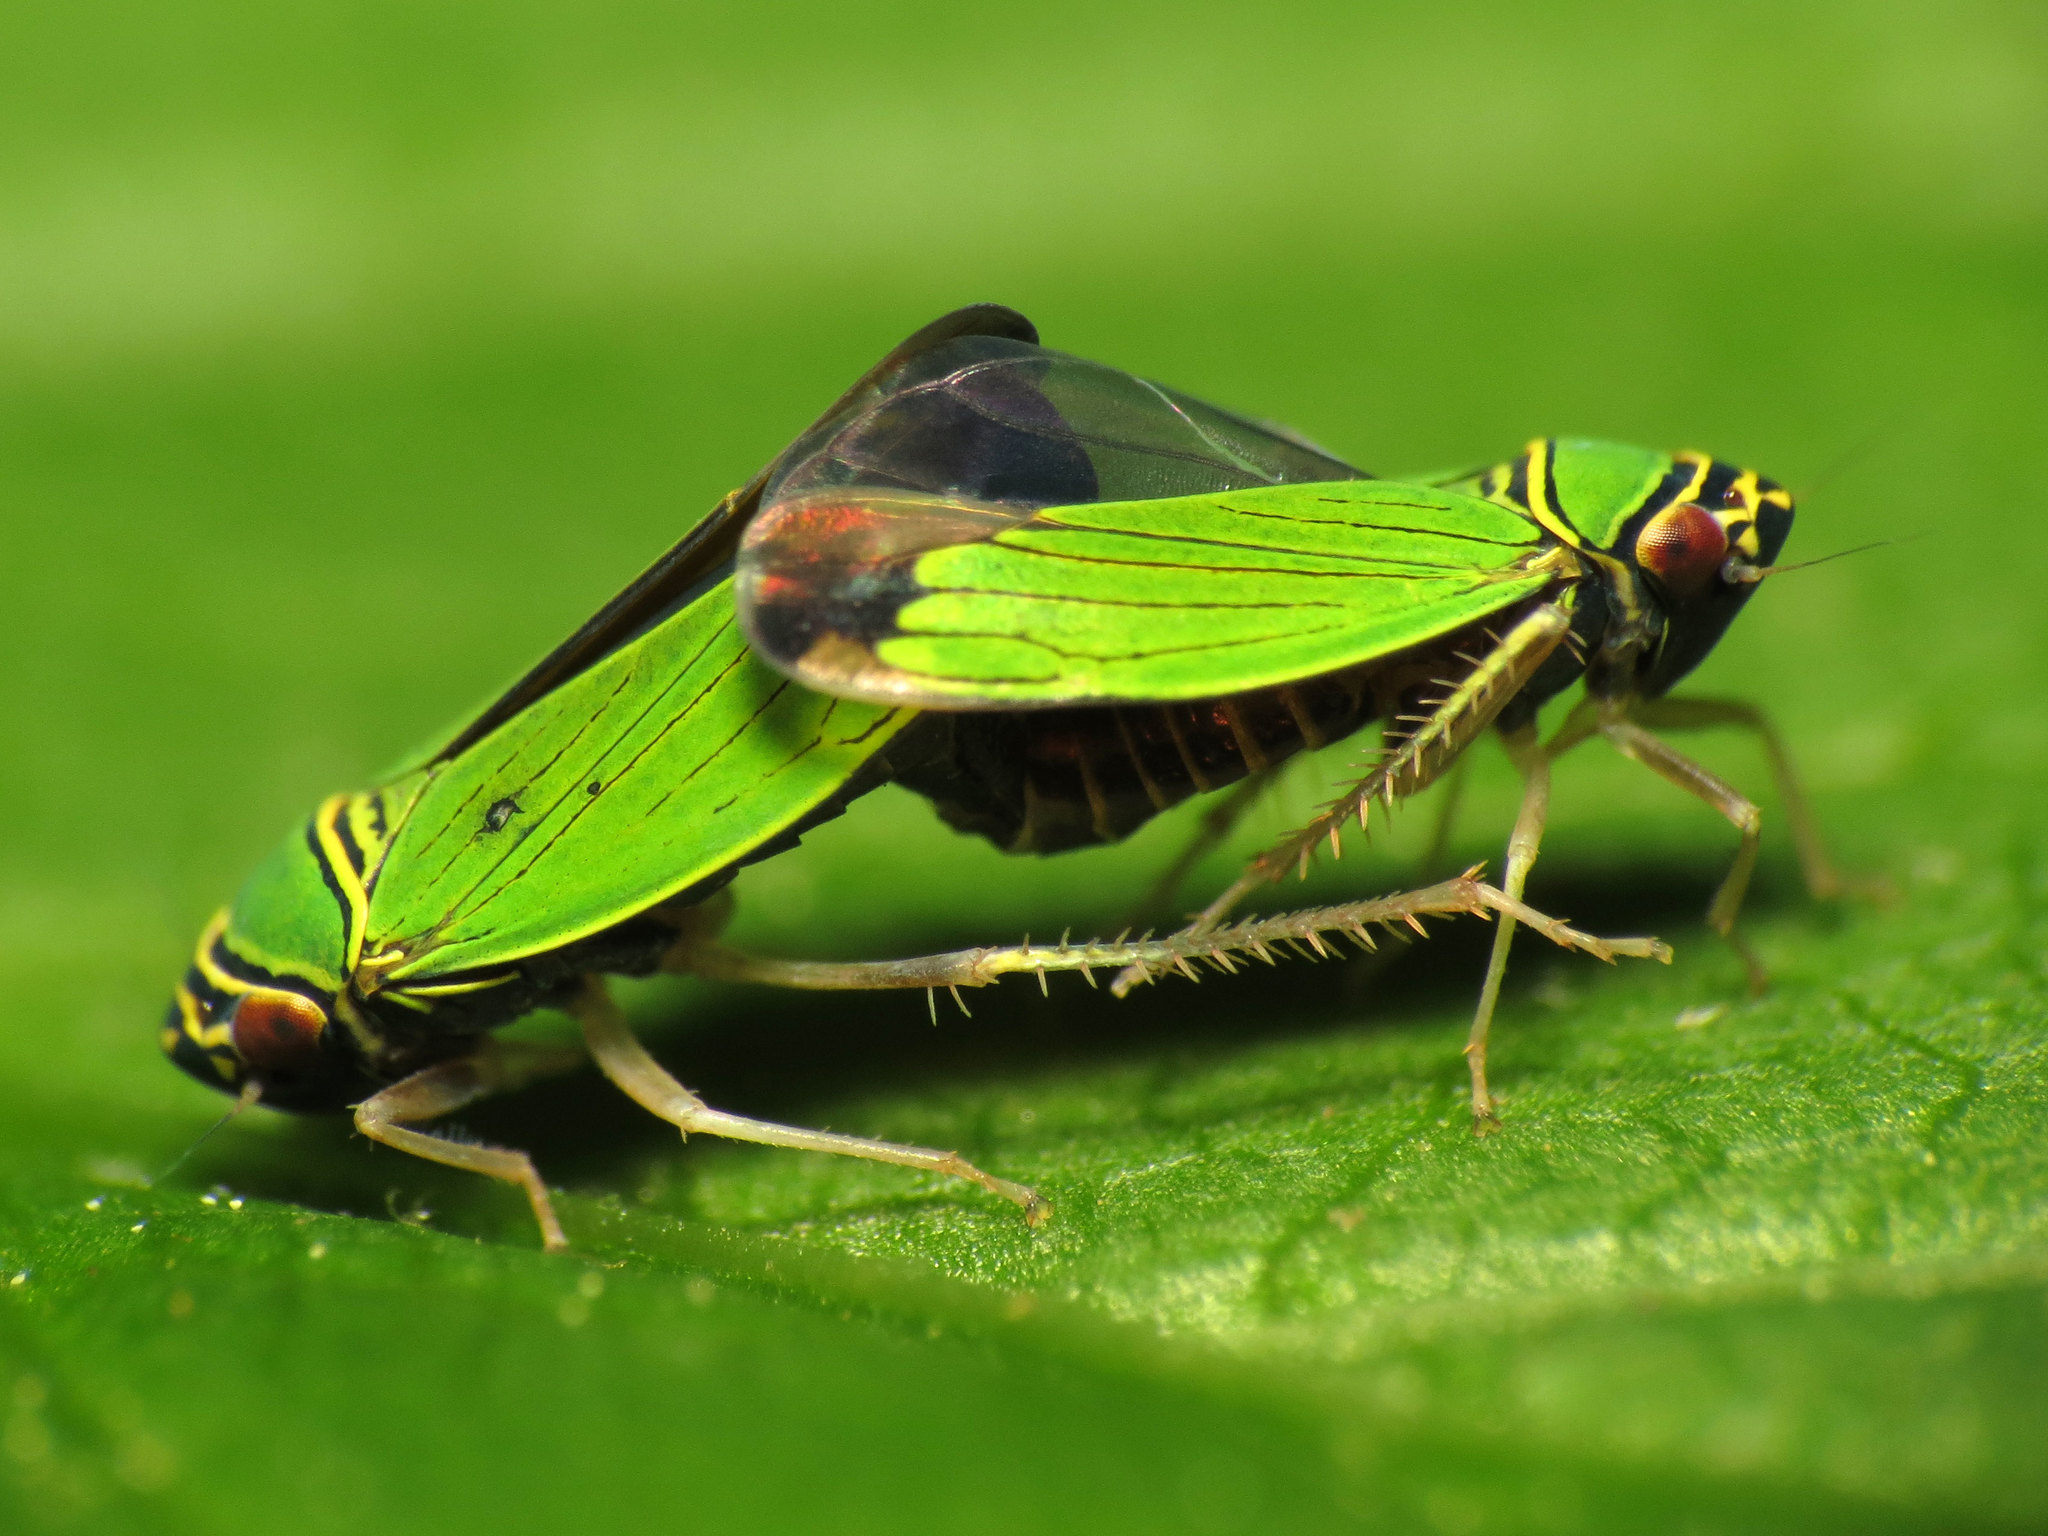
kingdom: Animalia
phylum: Arthropoda
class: Insecta
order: Hemiptera
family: Cicadellidae
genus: Tylozygus
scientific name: Tylozygus geometricus
